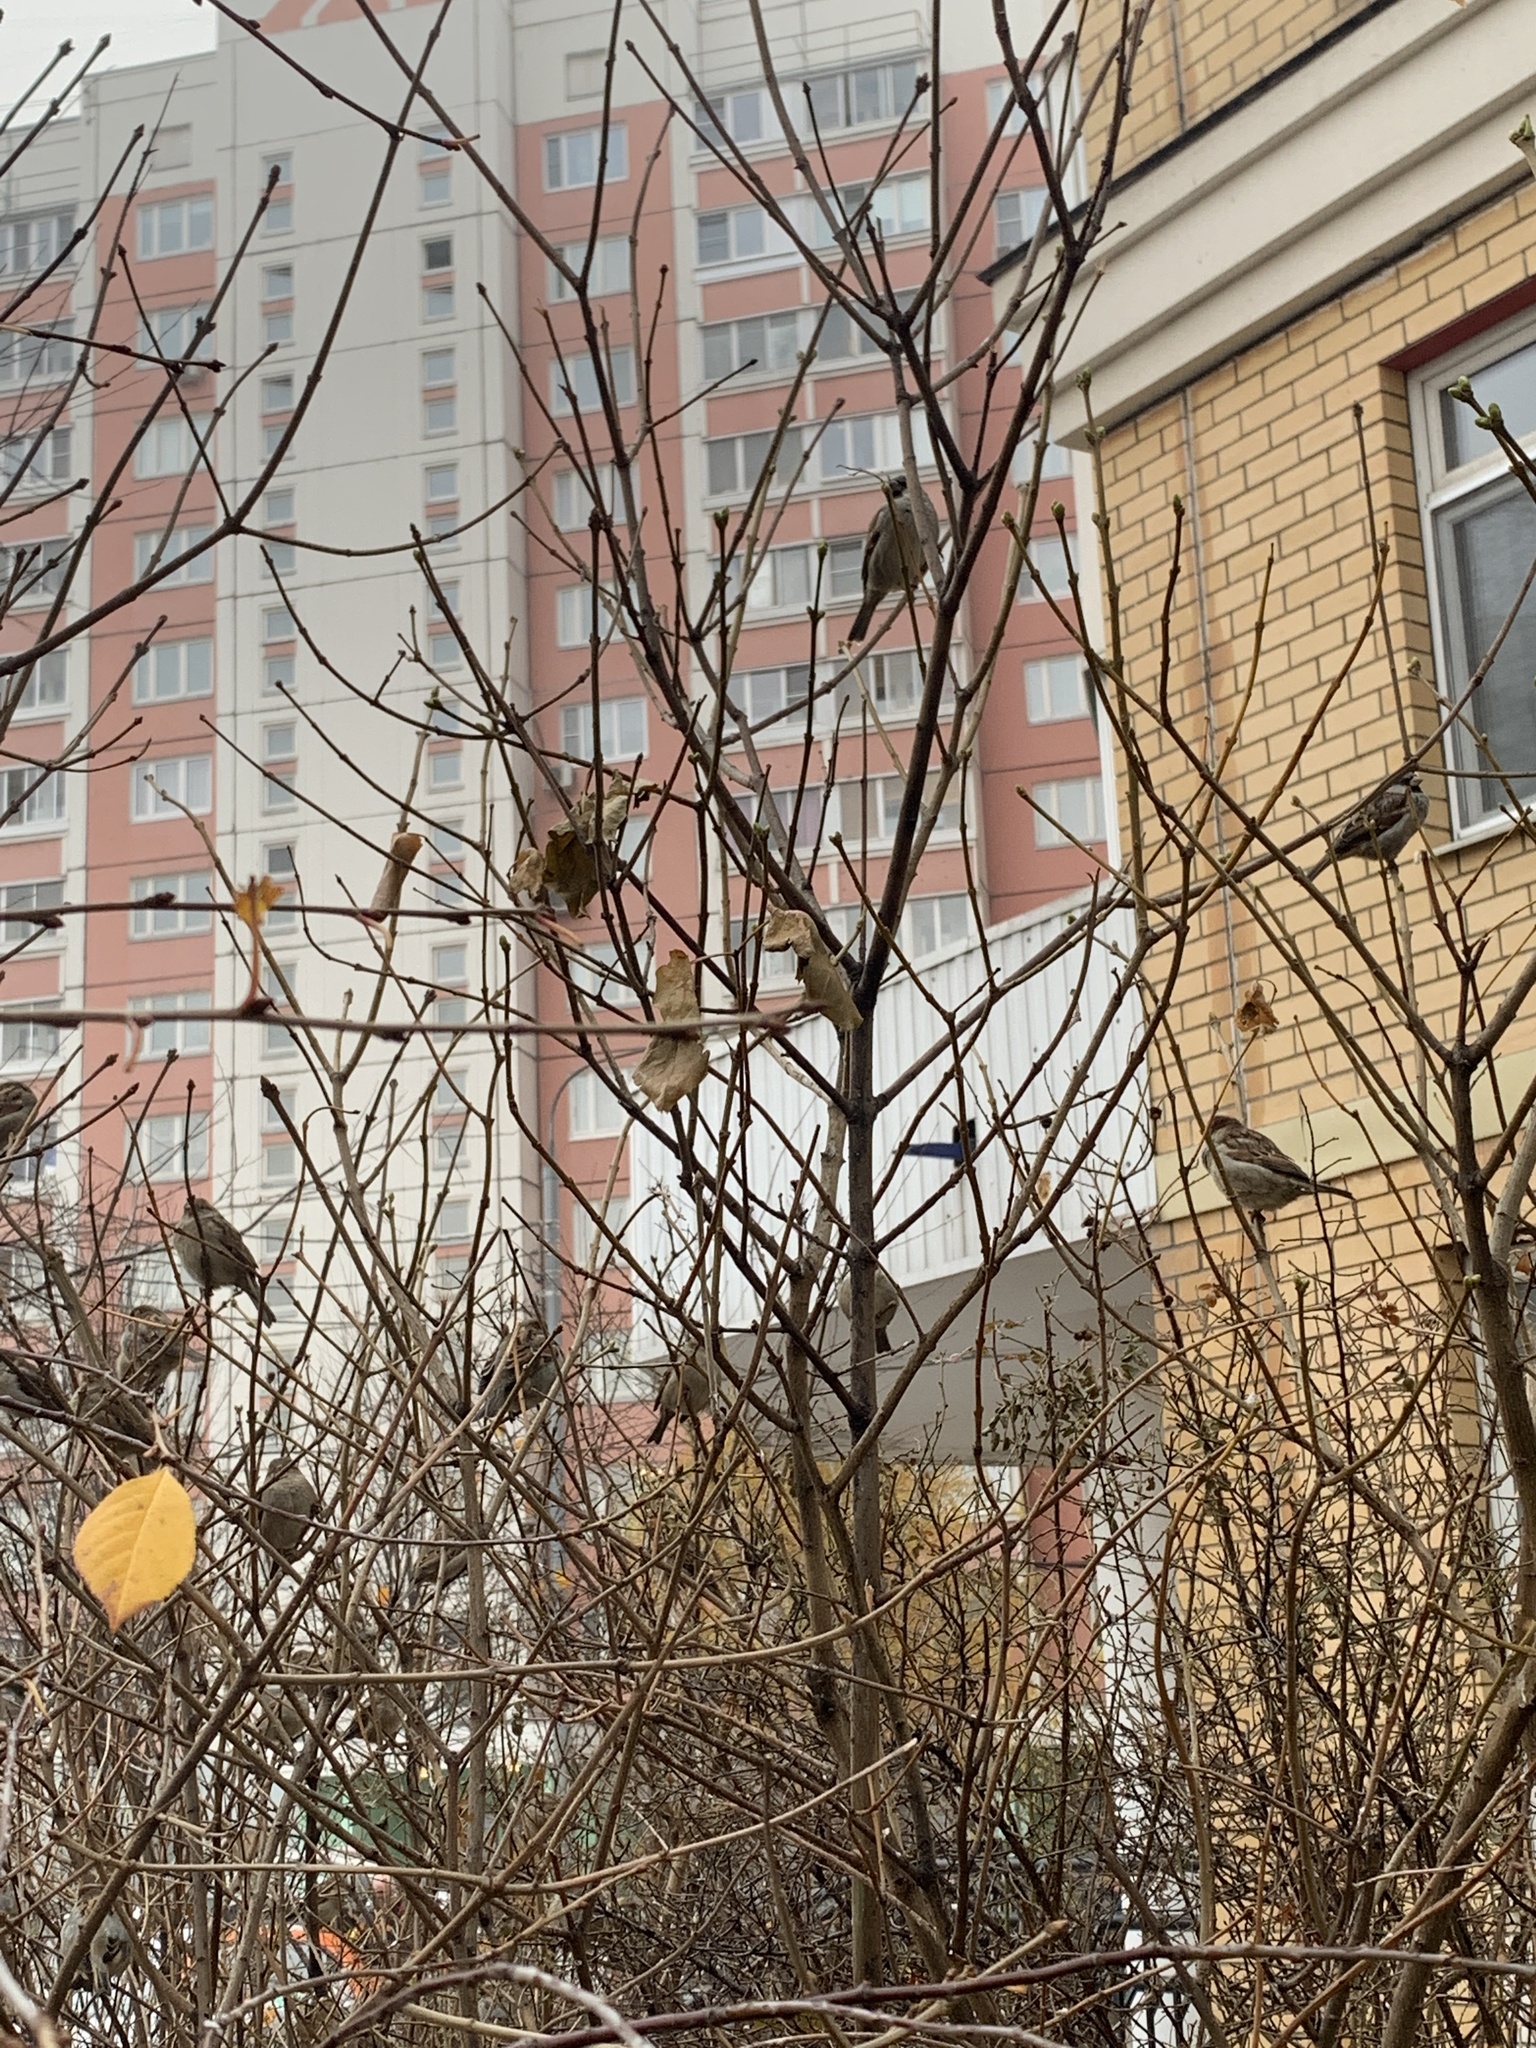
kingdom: Animalia
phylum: Chordata
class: Aves
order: Passeriformes
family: Passeridae
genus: Passer
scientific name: Passer domesticus
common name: House sparrow
